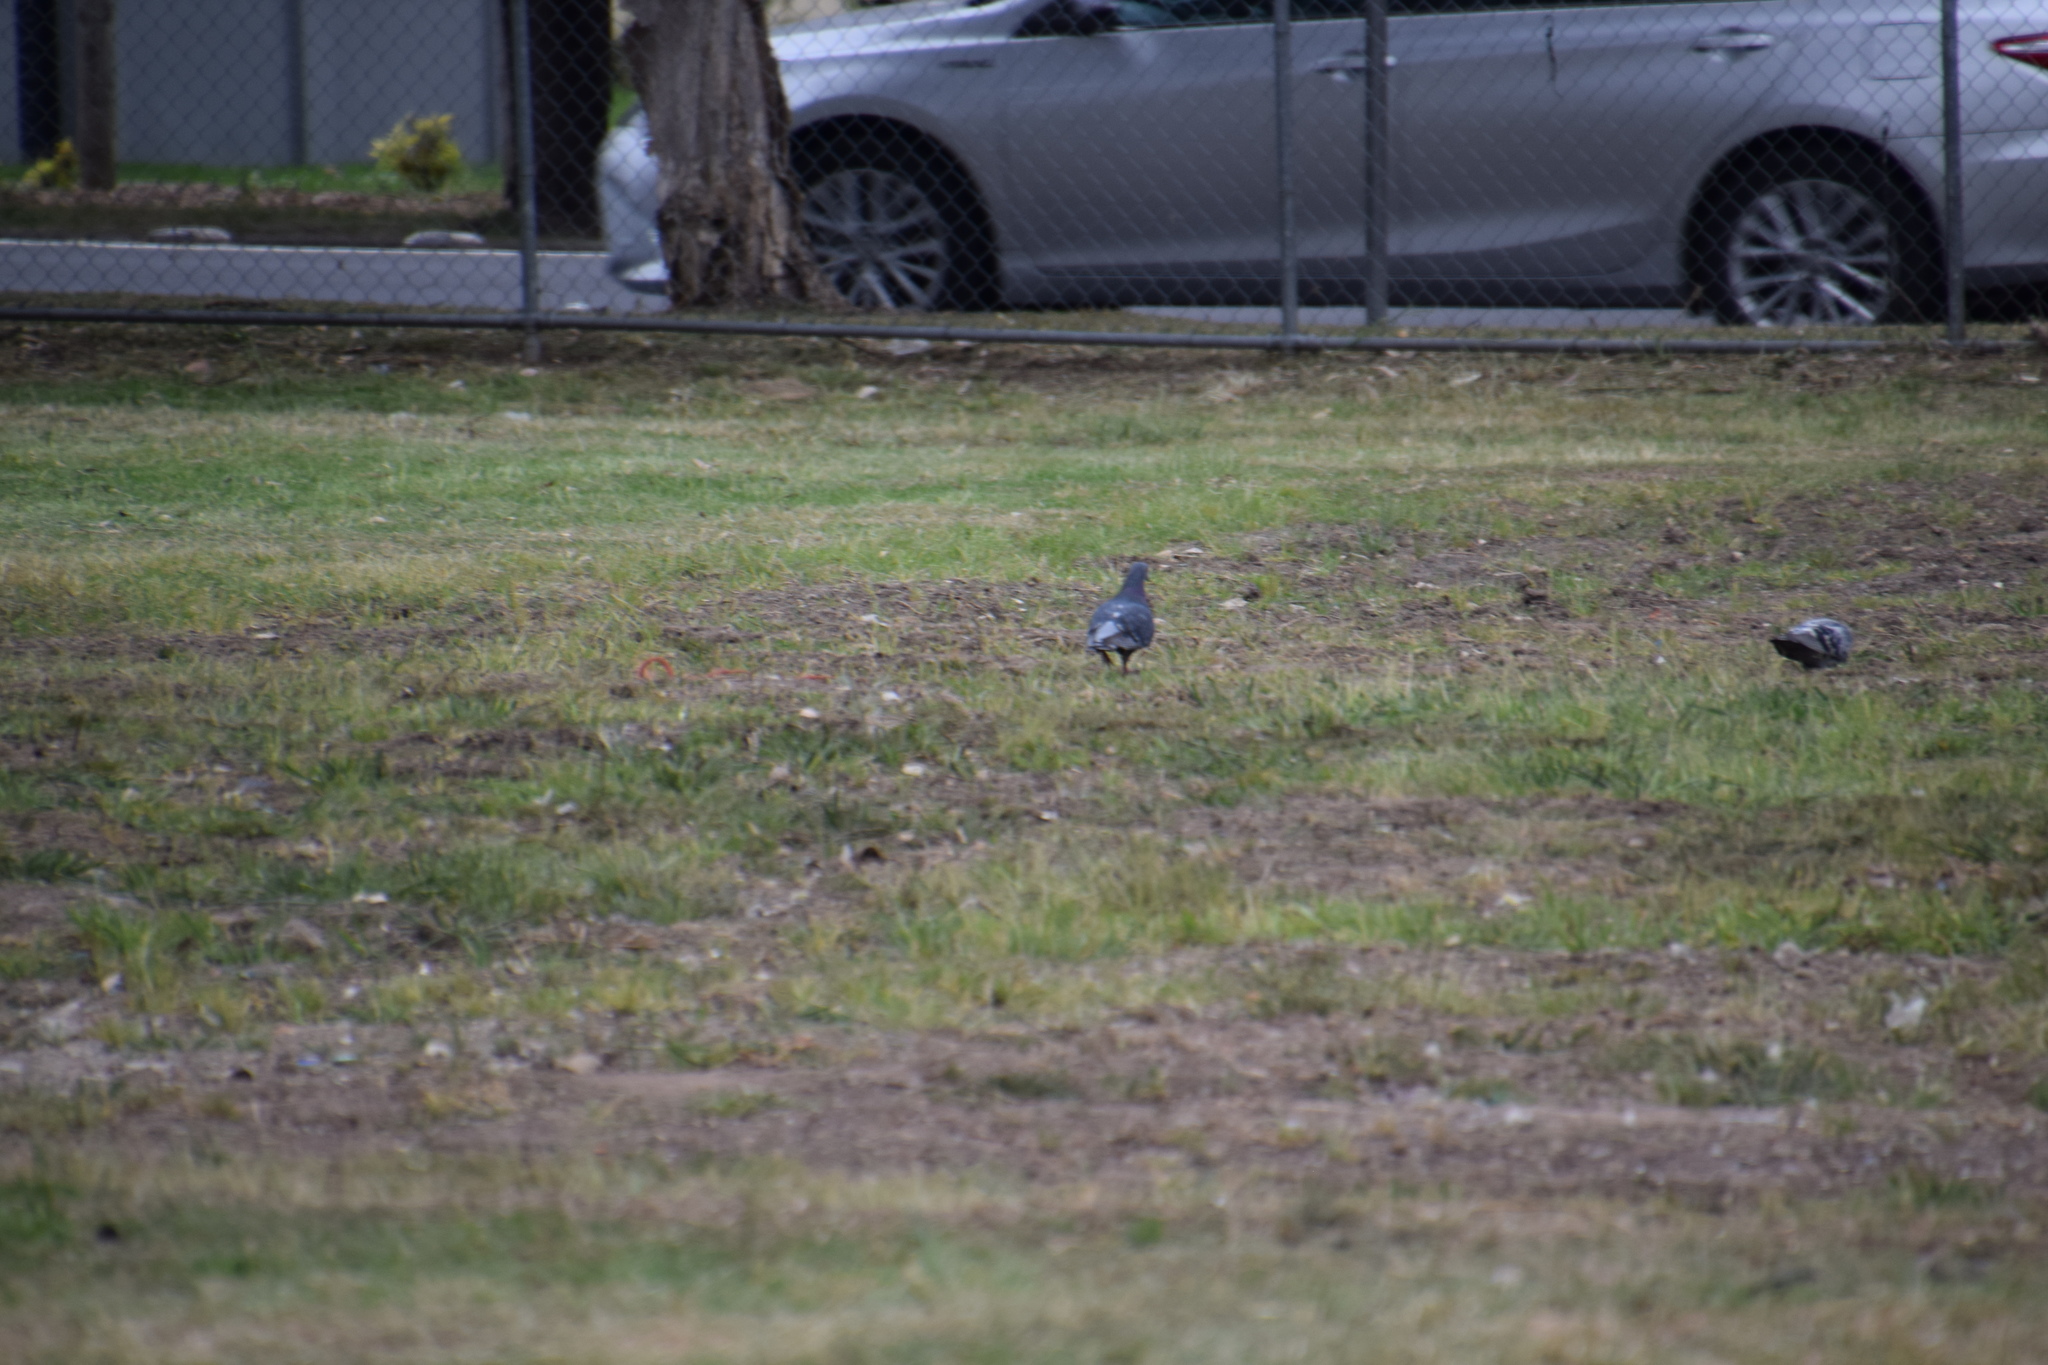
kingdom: Animalia
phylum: Chordata
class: Aves
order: Columbiformes
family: Columbidae
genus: Columba
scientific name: Columba livia
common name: Rock pigeon
